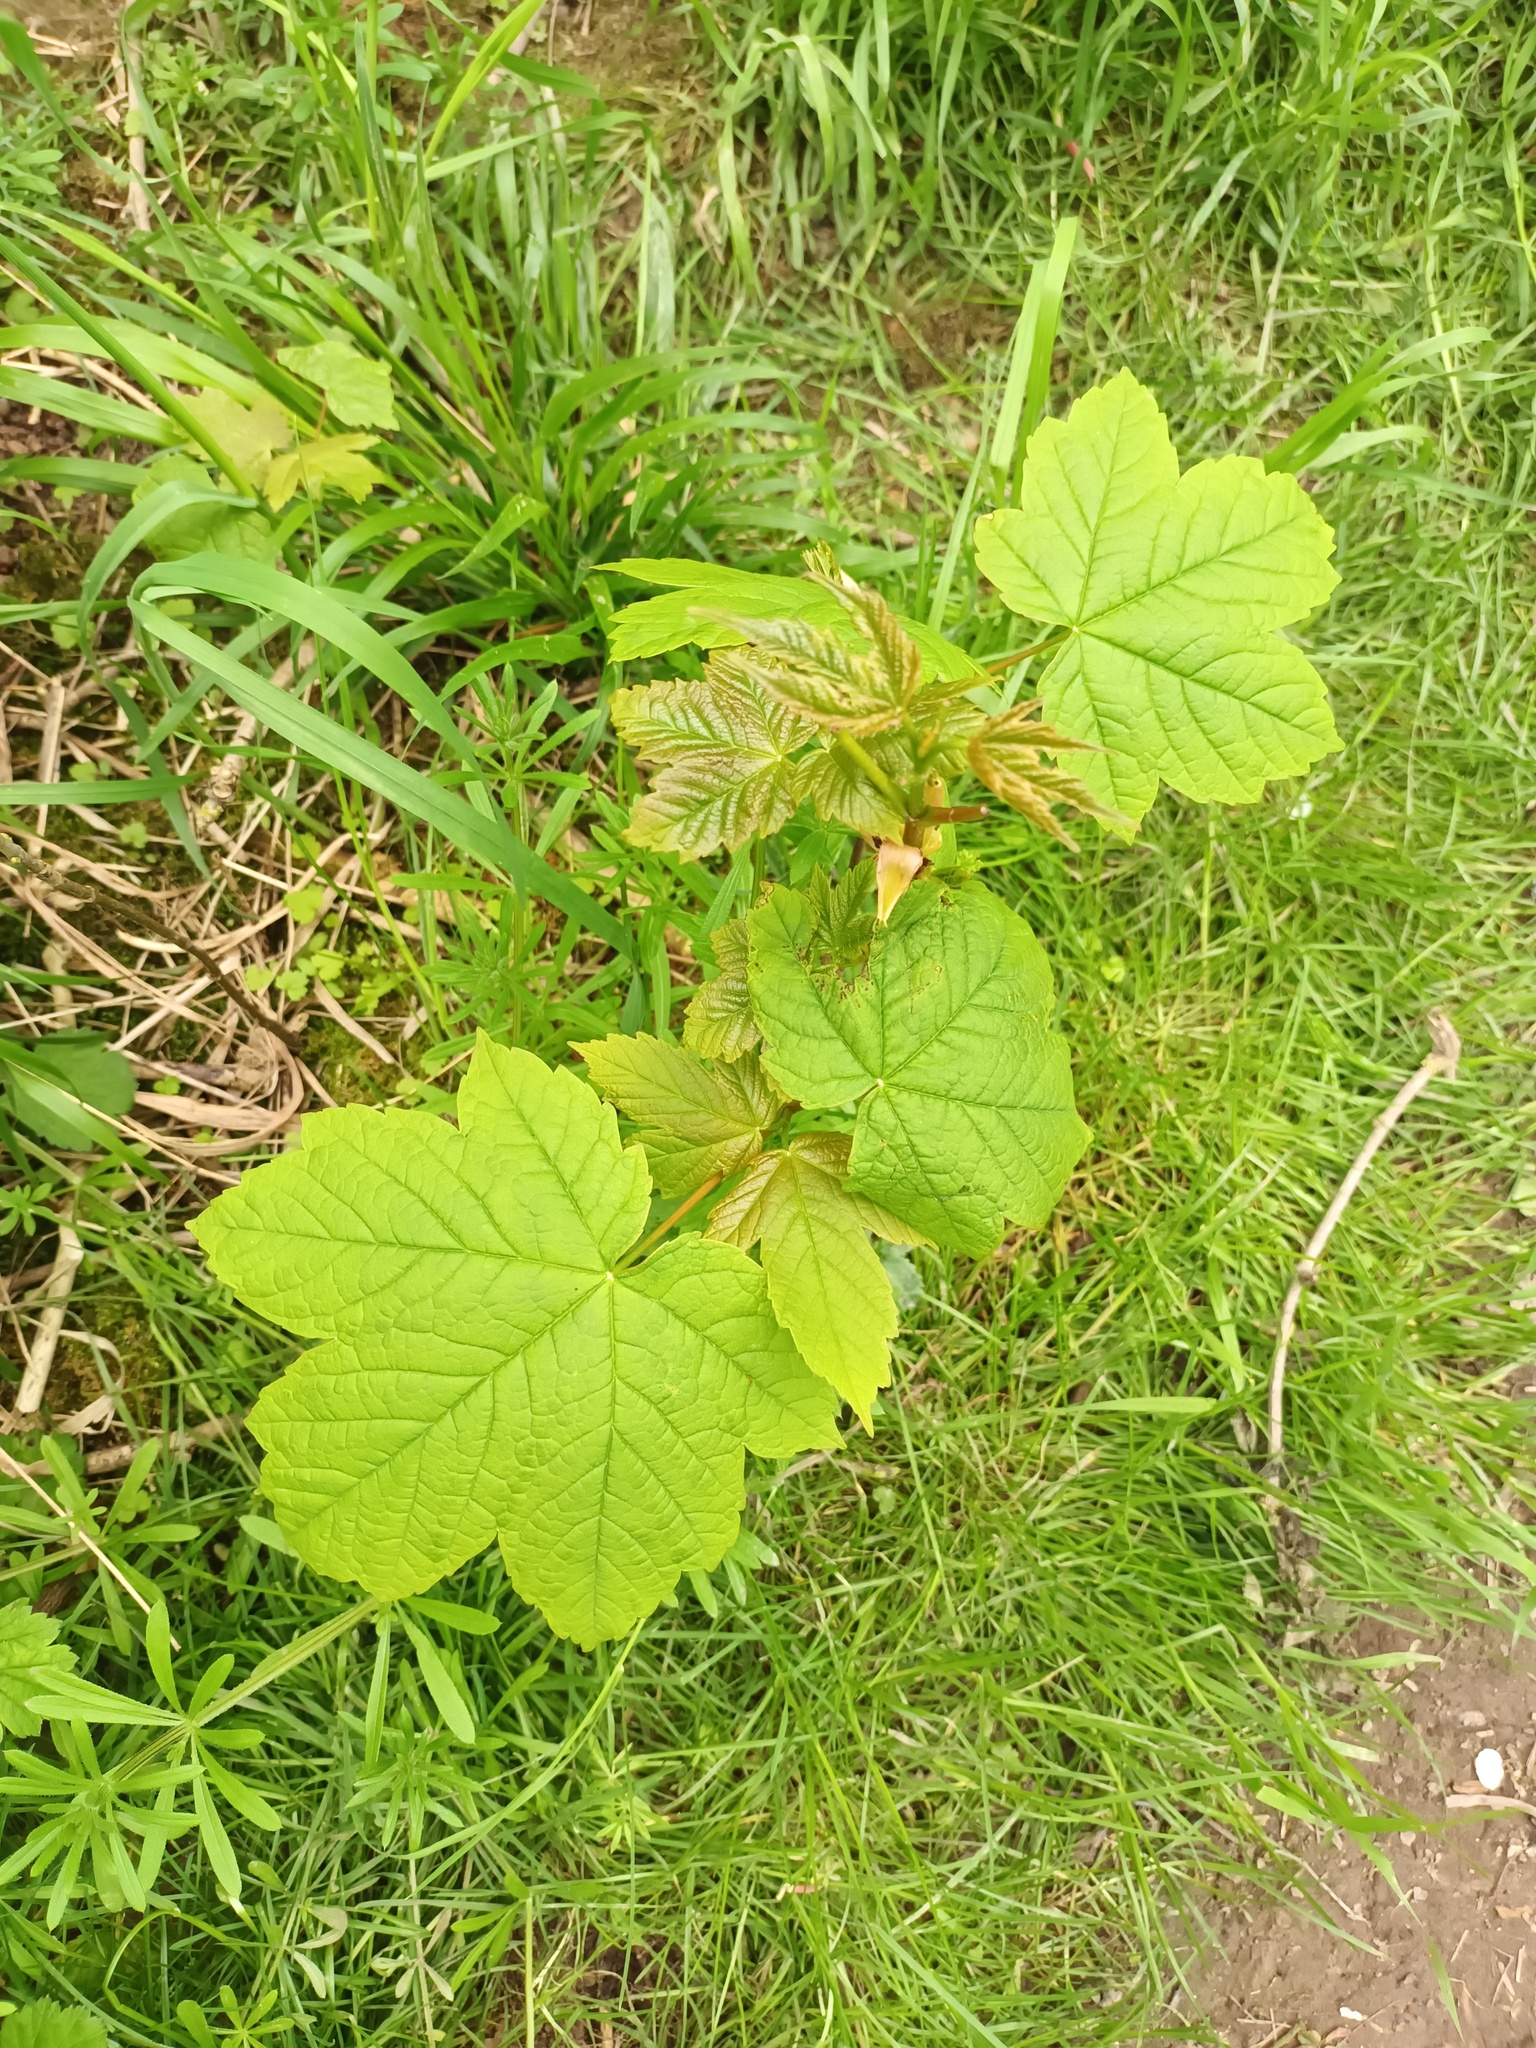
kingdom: Plantae
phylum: Tracheophyta
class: Magnoliopsida
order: Sapindales
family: Sapindaceae
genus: Acer
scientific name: Acer pseudoplatanus
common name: Sycamore
